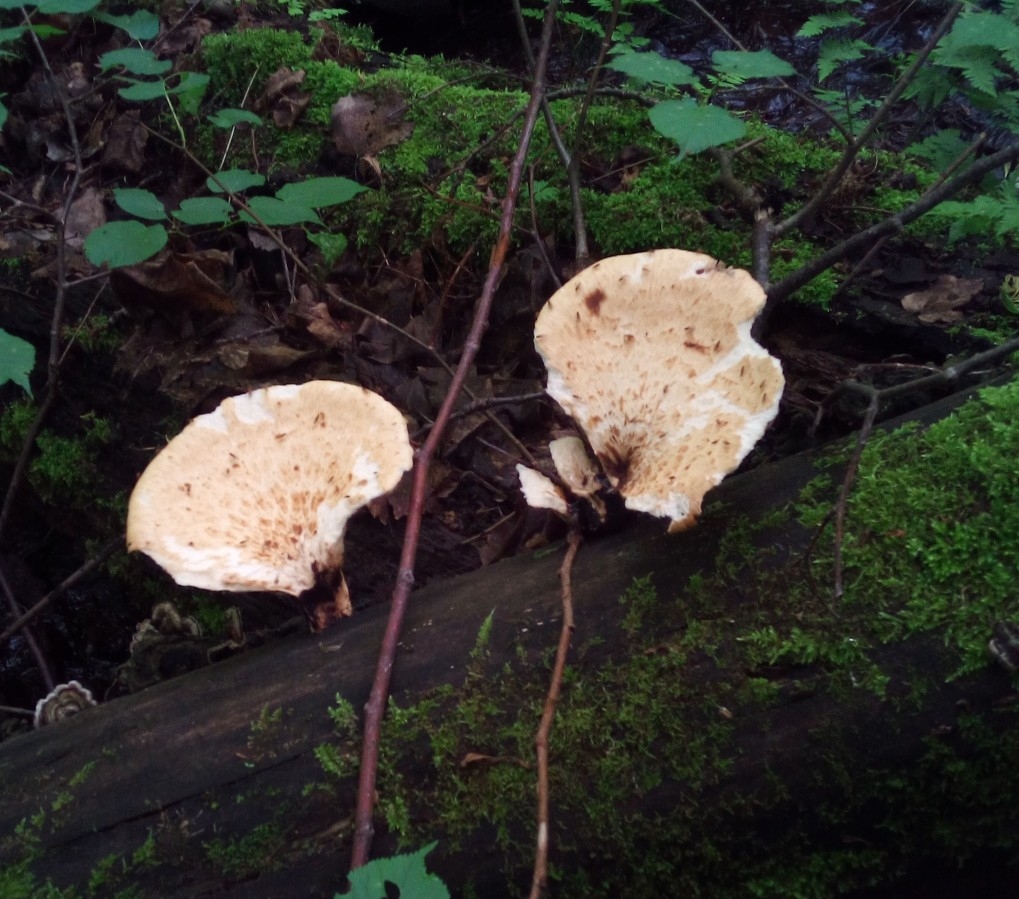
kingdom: Fungi
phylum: Basidiomycota
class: Agaricomycetes
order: Polyporales
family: Polyporaceae
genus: Cerioporus
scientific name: Cerioporus squamosus
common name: Dryad's saddle
